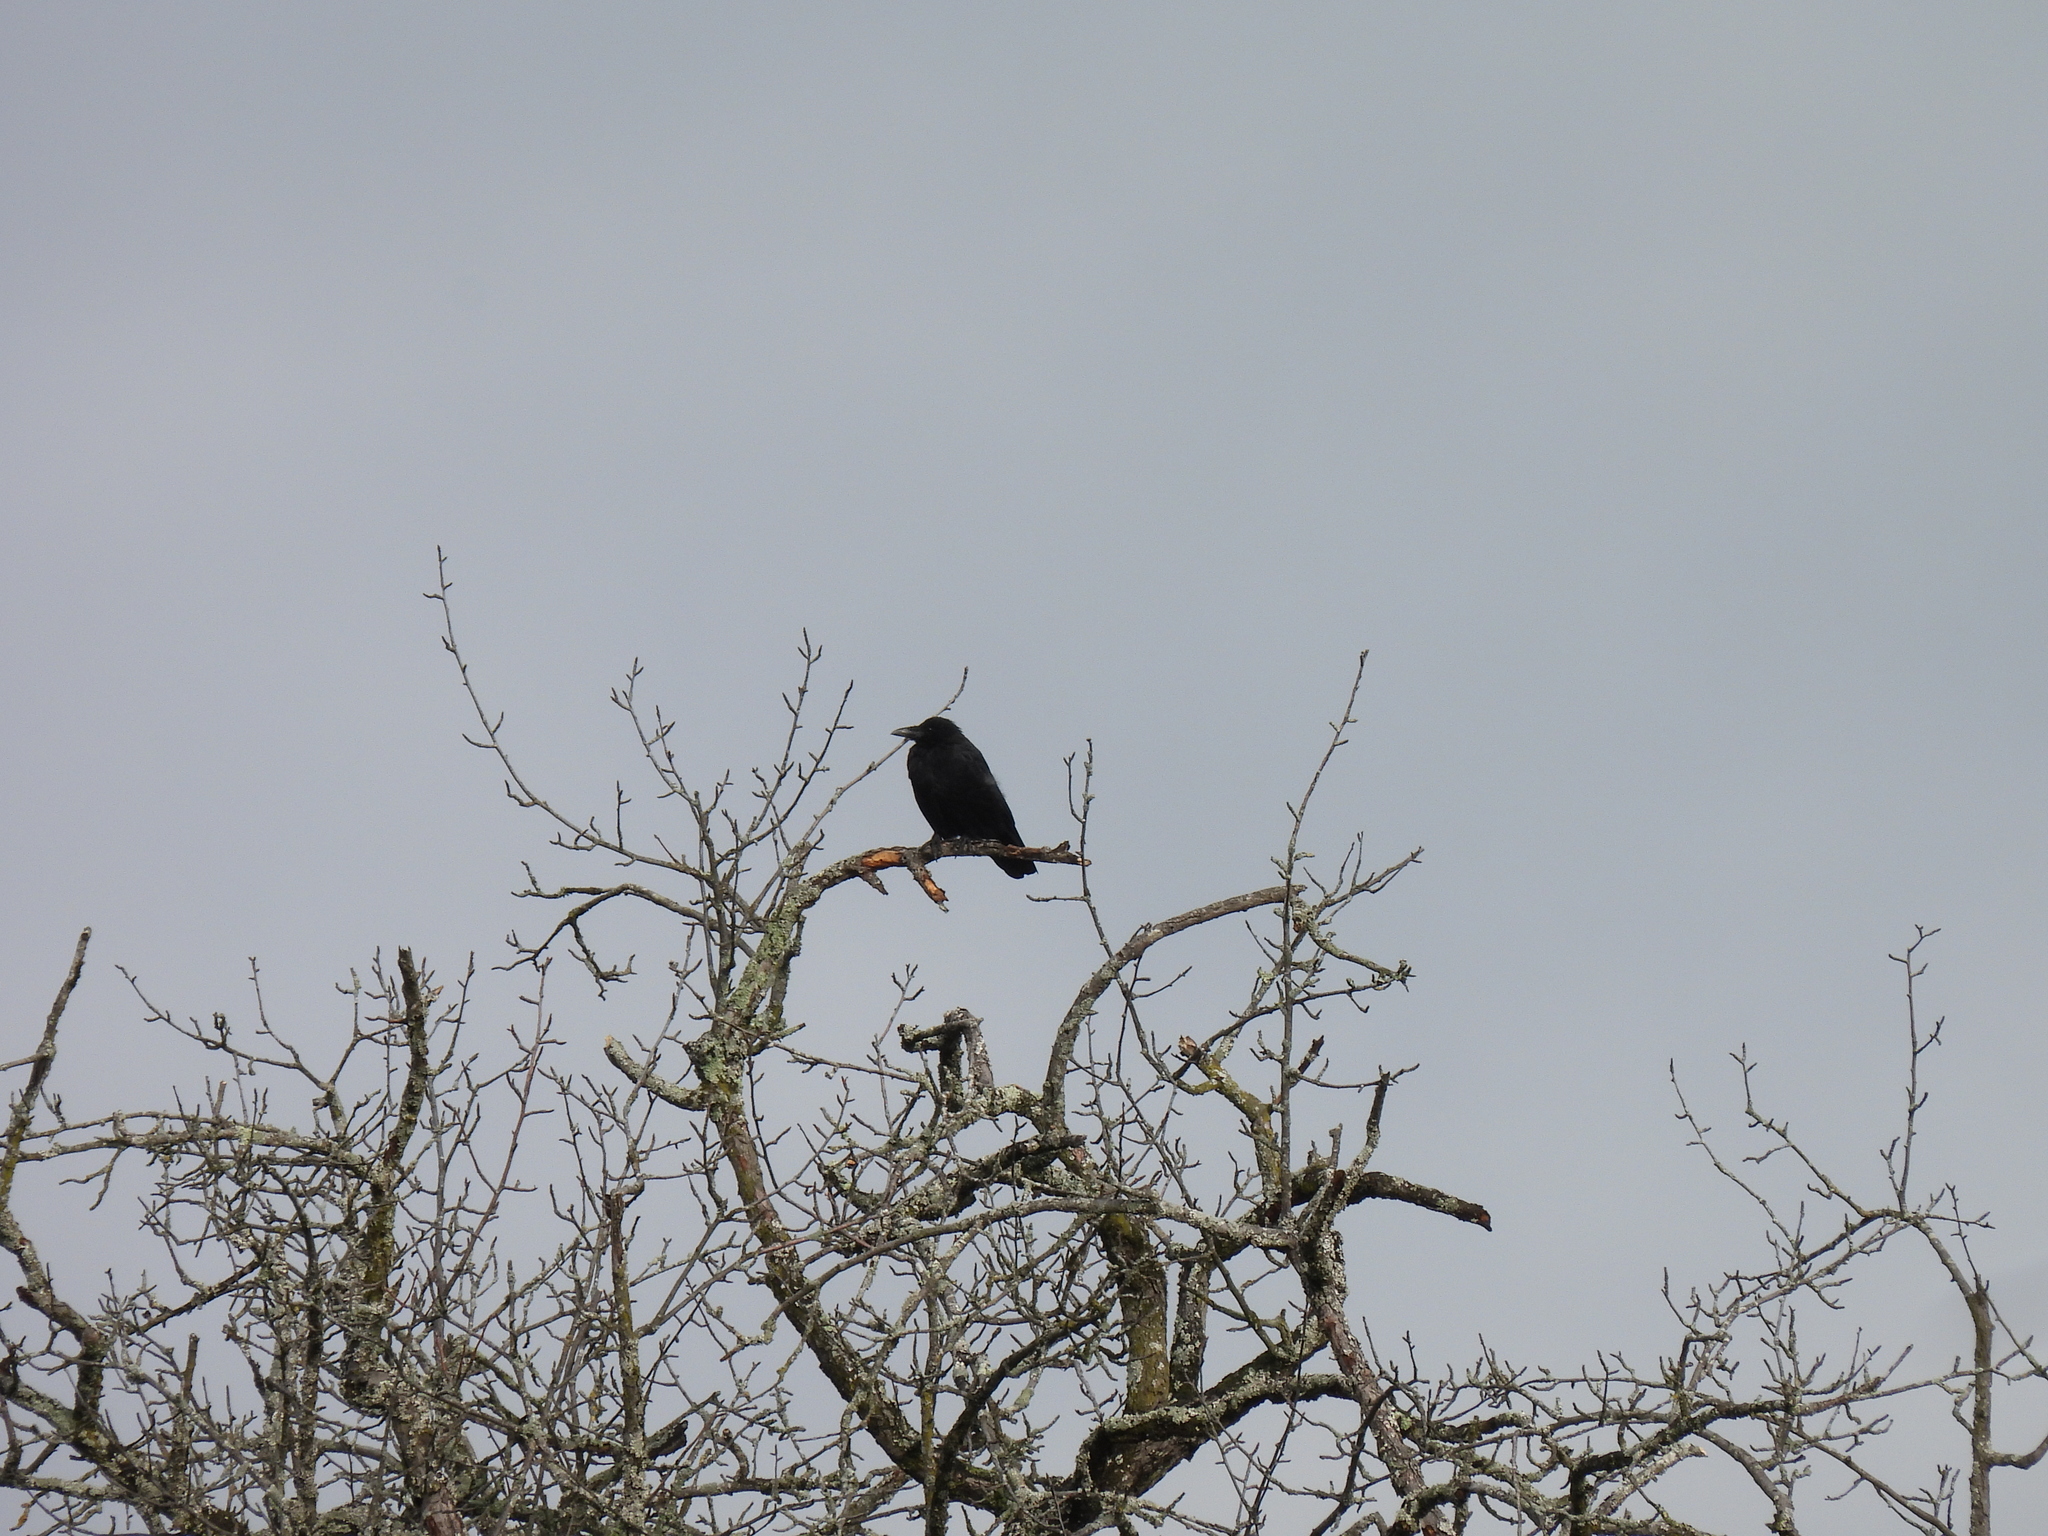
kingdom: Animalia
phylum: Chordata
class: Aves
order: Passeriformes
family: Corvidae
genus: Corvus
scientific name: Corvus corone
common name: Carrion crow
